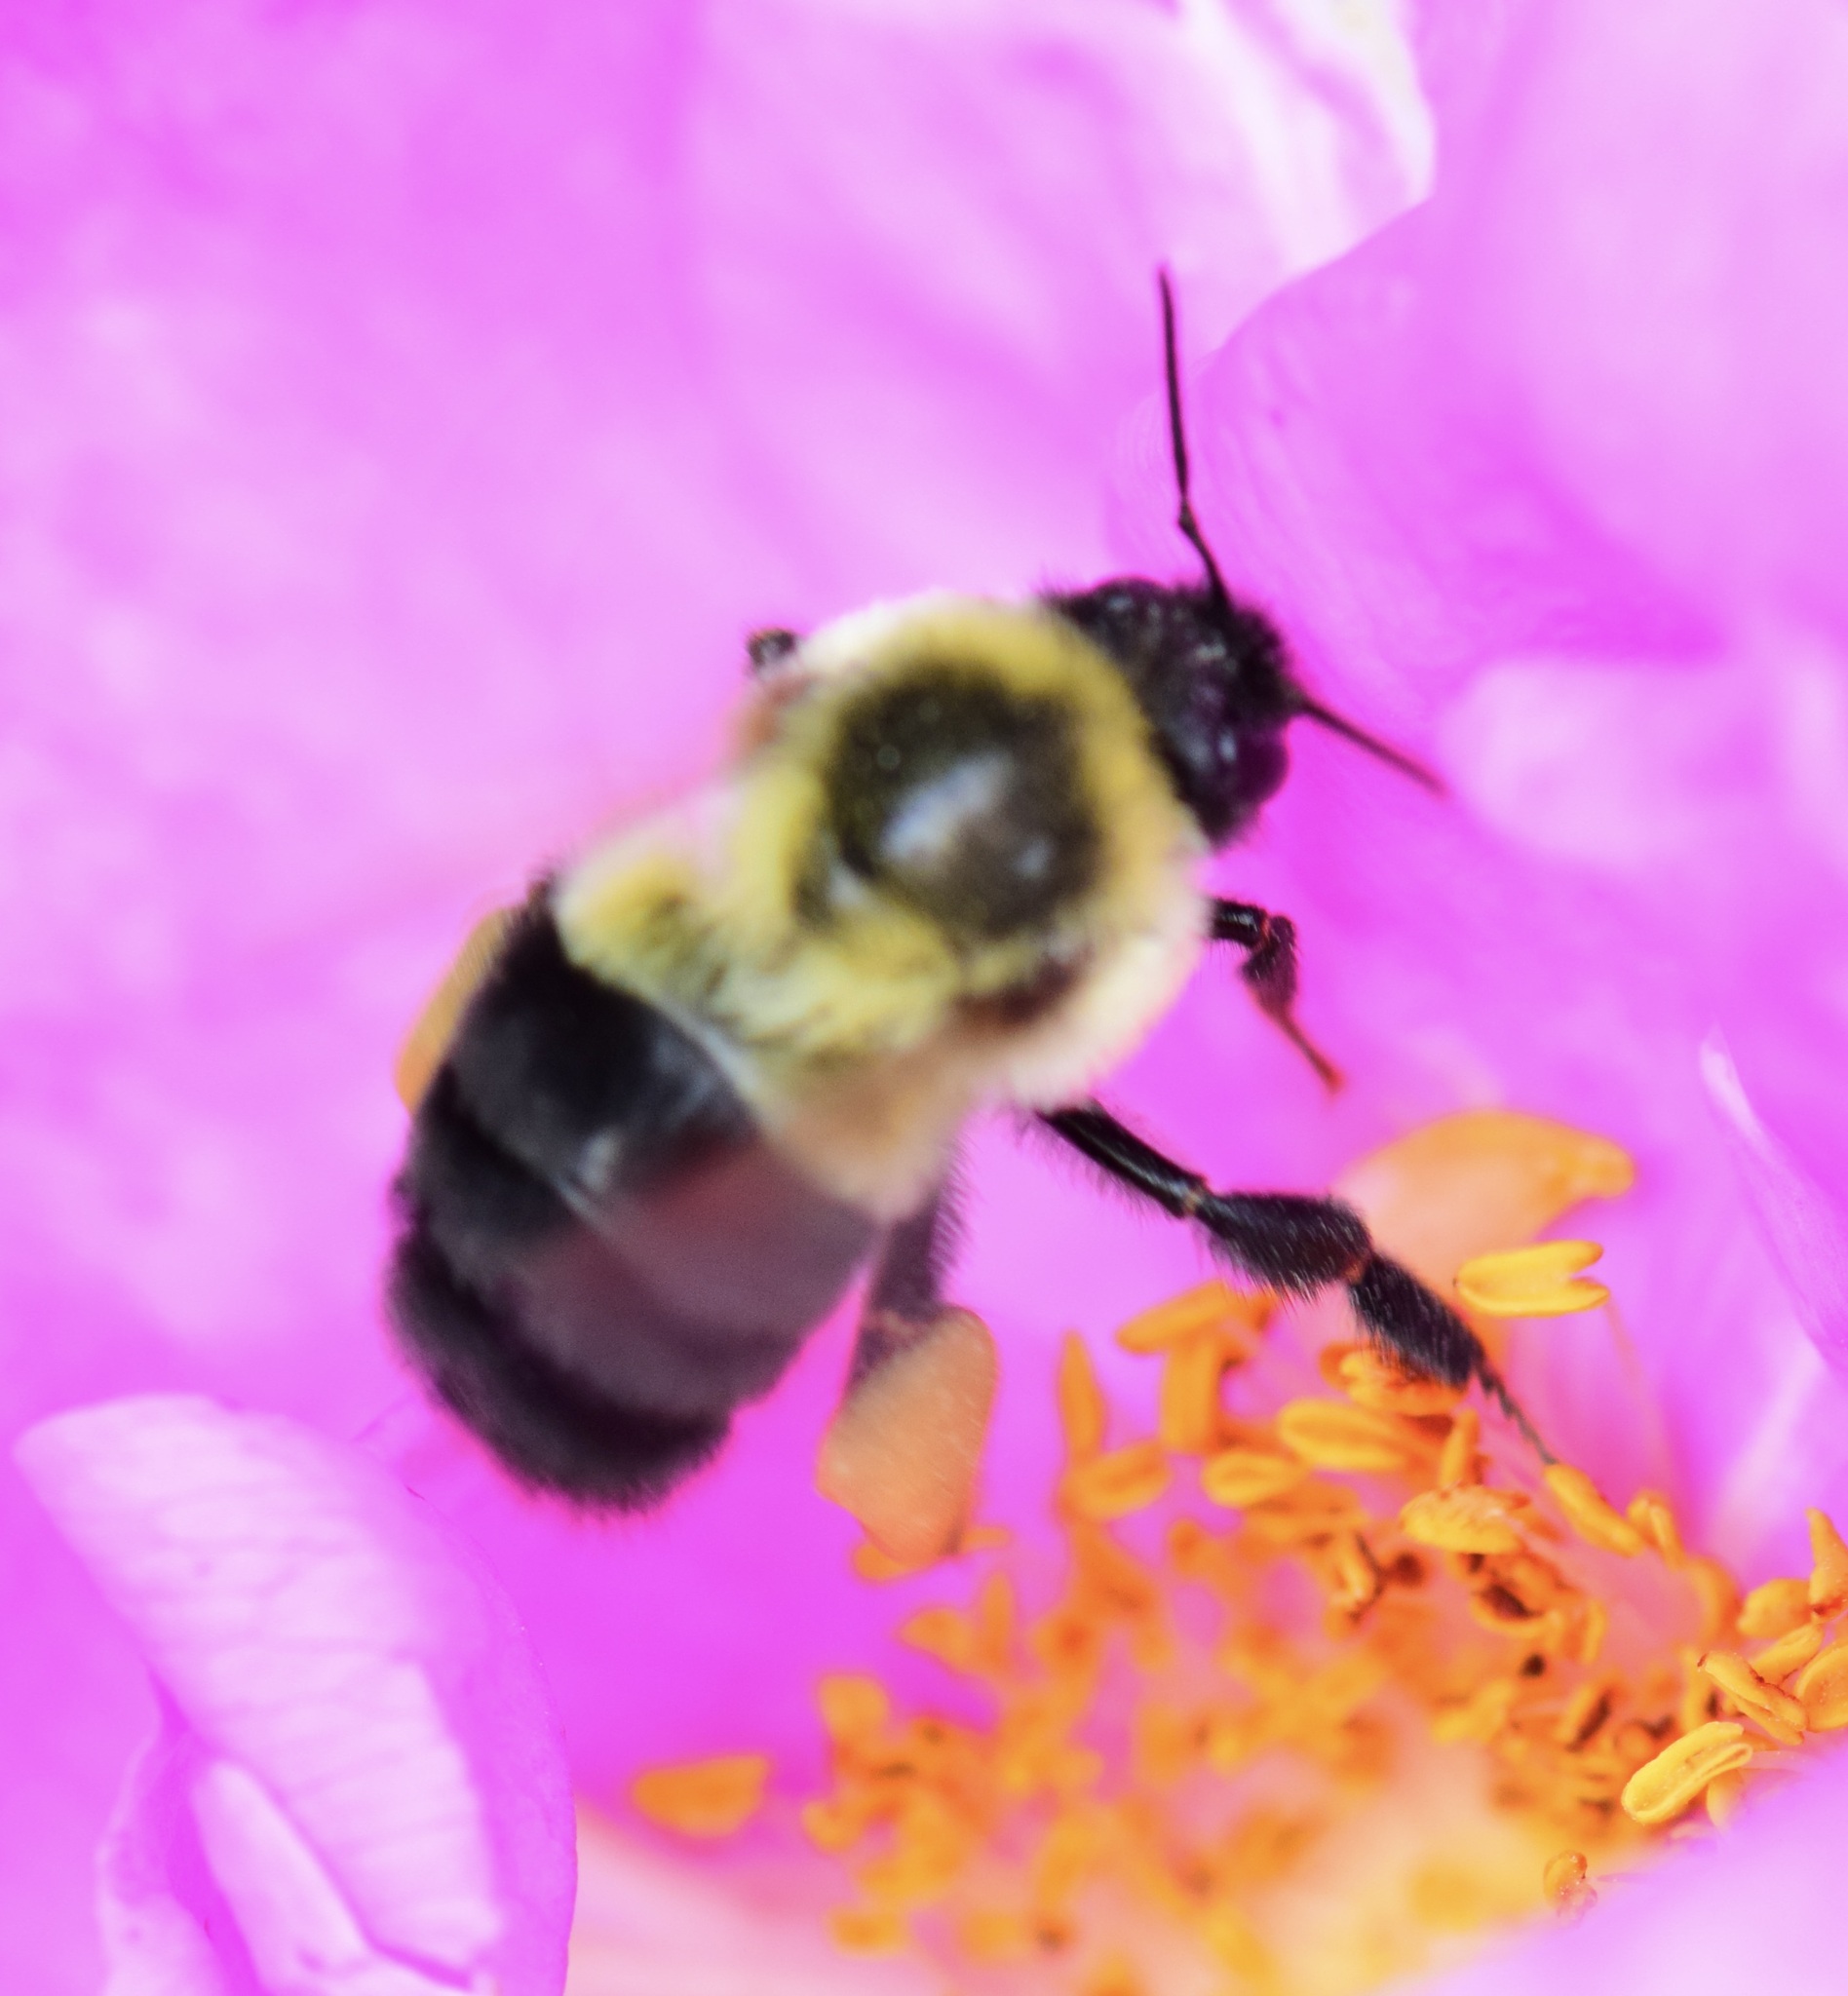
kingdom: Animalia
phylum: Arthropoda
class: Insecta
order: Hymenoptera
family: Apidae
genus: Bombus
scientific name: Bombus impatiens
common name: Common eastern bumble bee
